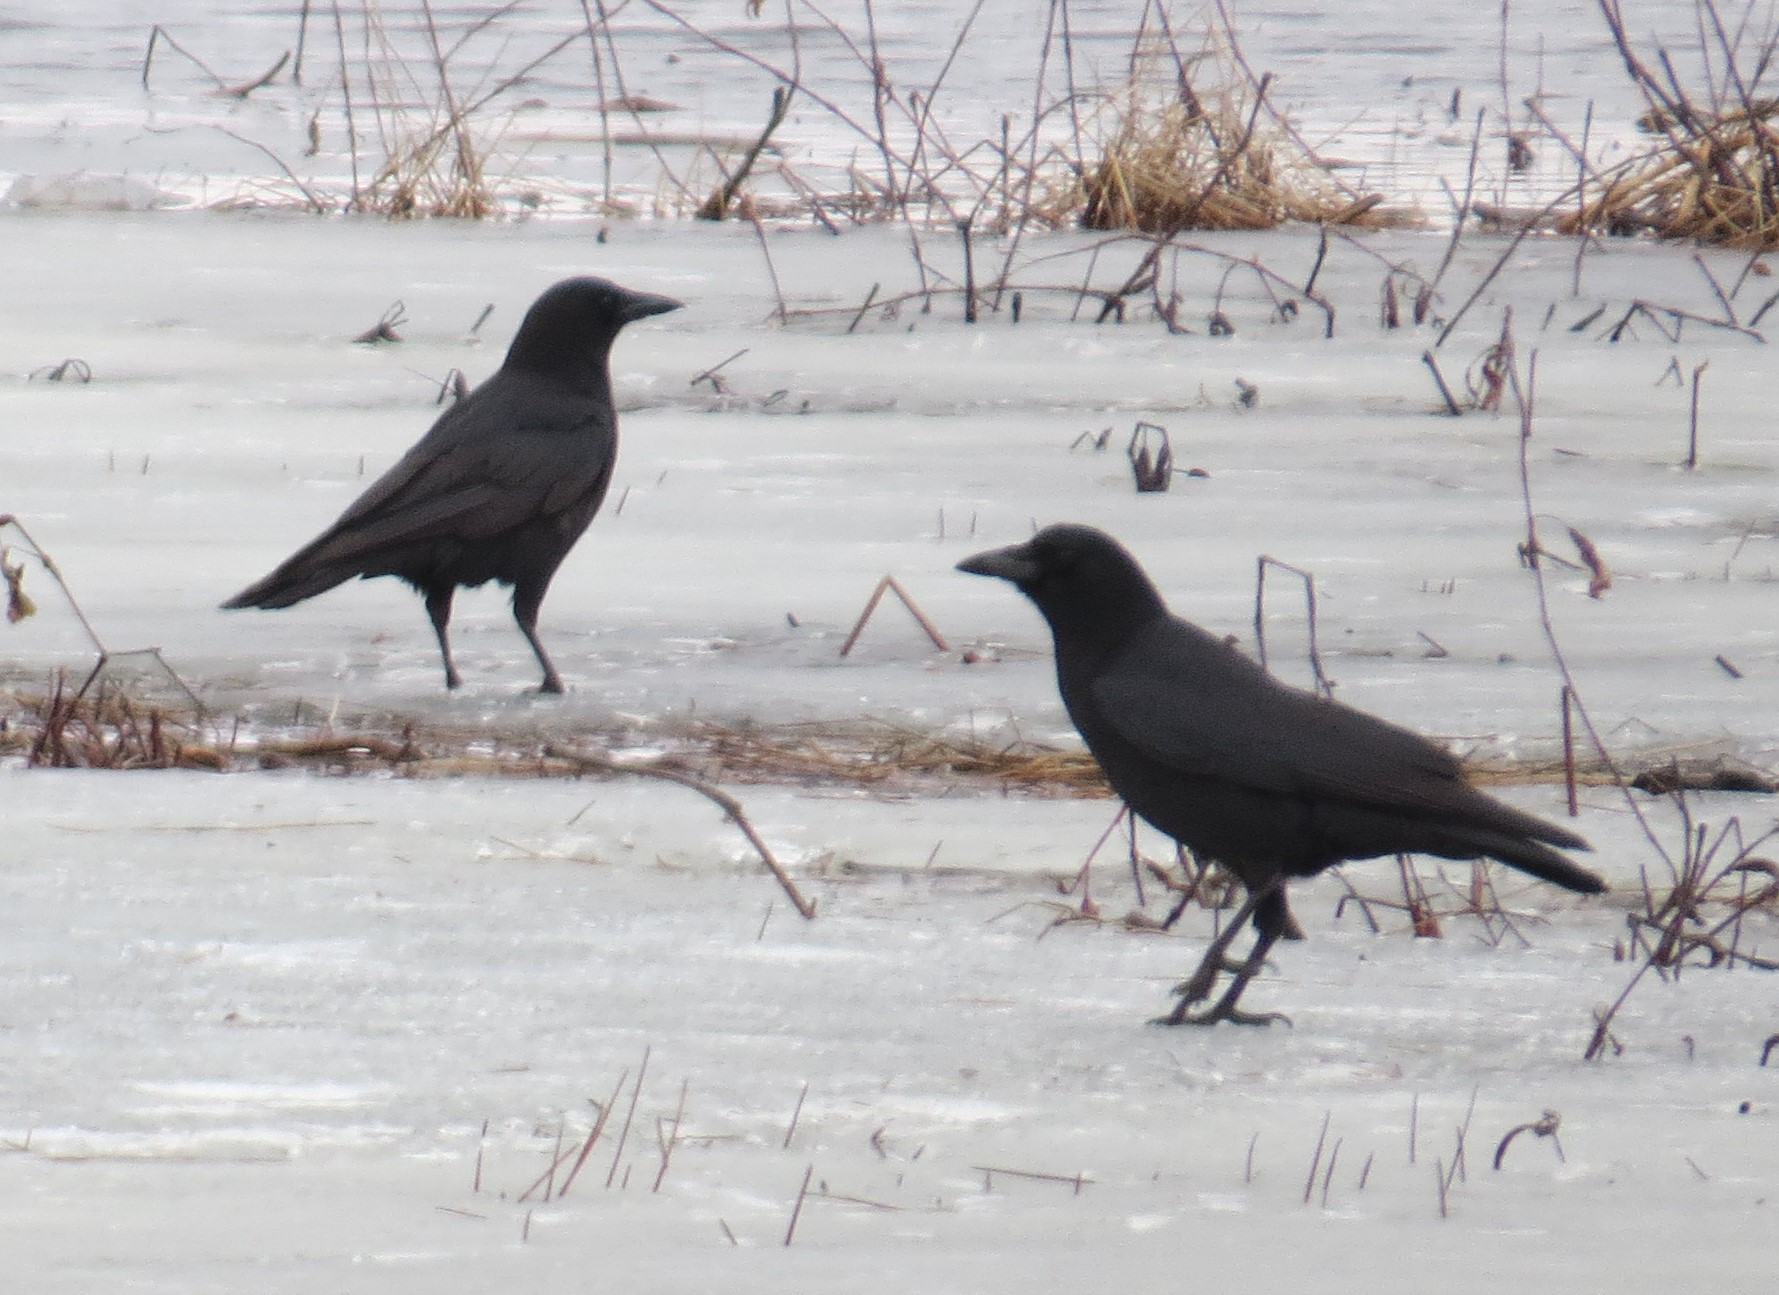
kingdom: Animalia
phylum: Chordata
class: Aves
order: Passeriformes
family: Corvidae
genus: Corvus
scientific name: Corvus brachyrhynchos
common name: American crow
